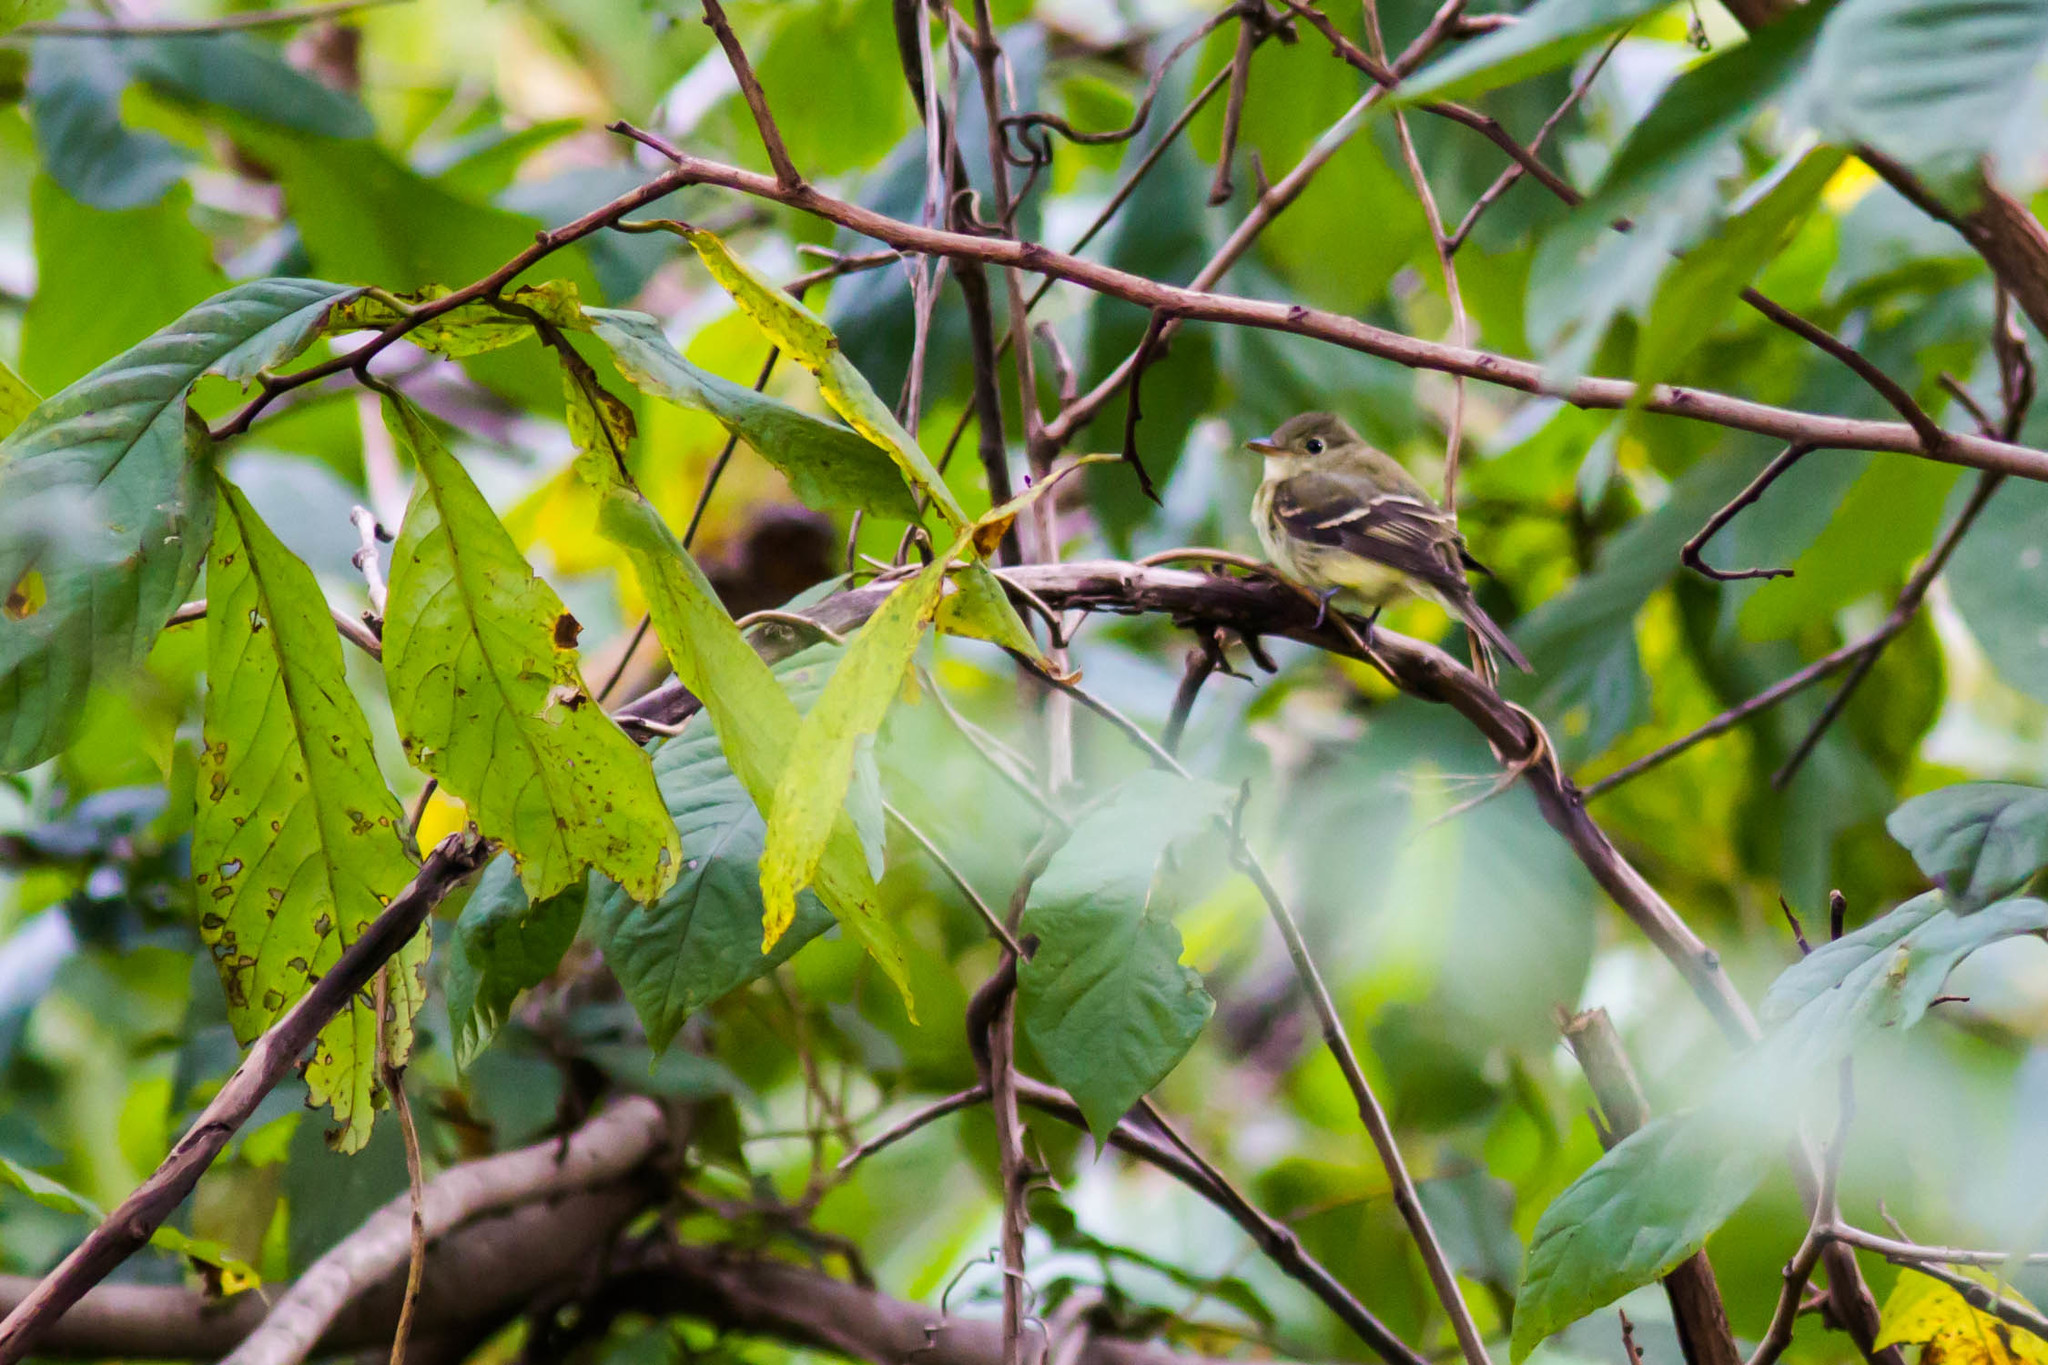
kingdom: Animalia
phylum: Chordata
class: Aves
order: Passeriformes
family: Tyrannidae
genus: Empidonax
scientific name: Empidonax virescens
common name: Acadian flycatcher
